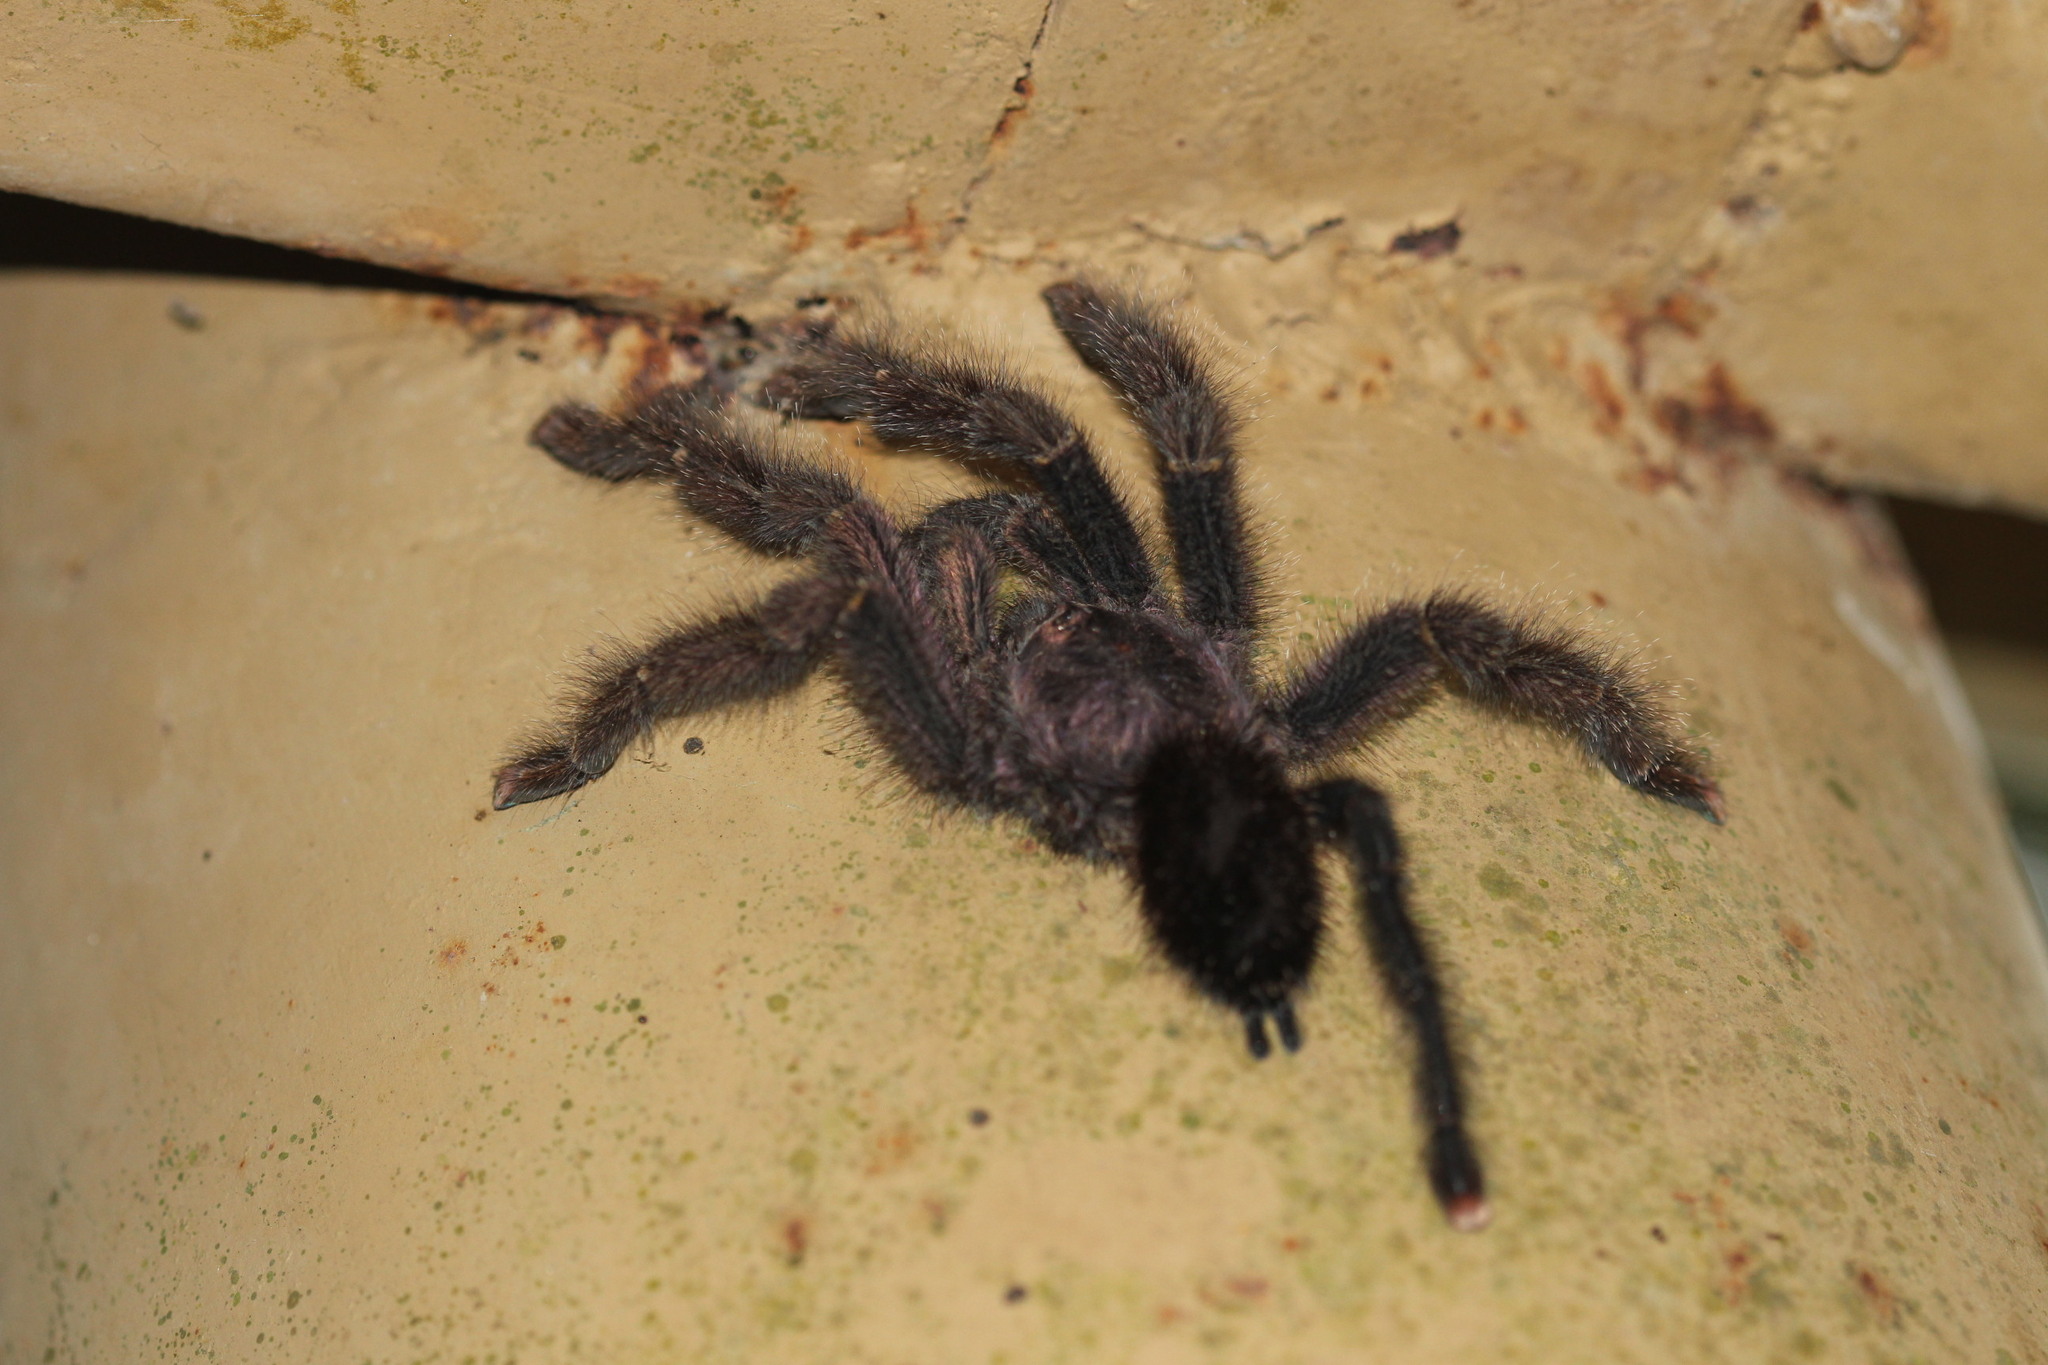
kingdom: Animalia
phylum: Arthropoda
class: Arachnida
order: Araneae
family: Theraphosidae
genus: Avicularia
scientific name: Avicularia juruensis
